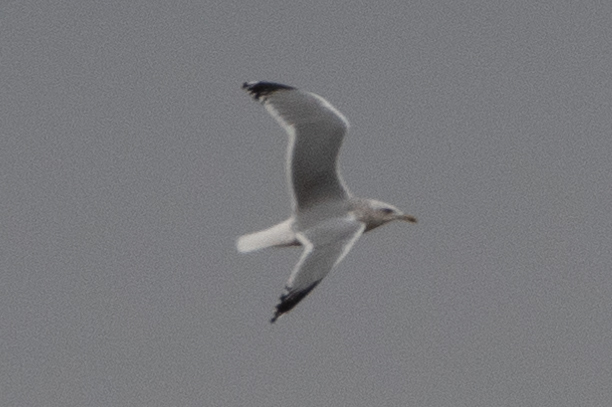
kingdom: Animalia
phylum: Chordata
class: Aves
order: Charadriiformes
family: Laridae
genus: Larus
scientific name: Larus argentatus
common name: Herring gull
